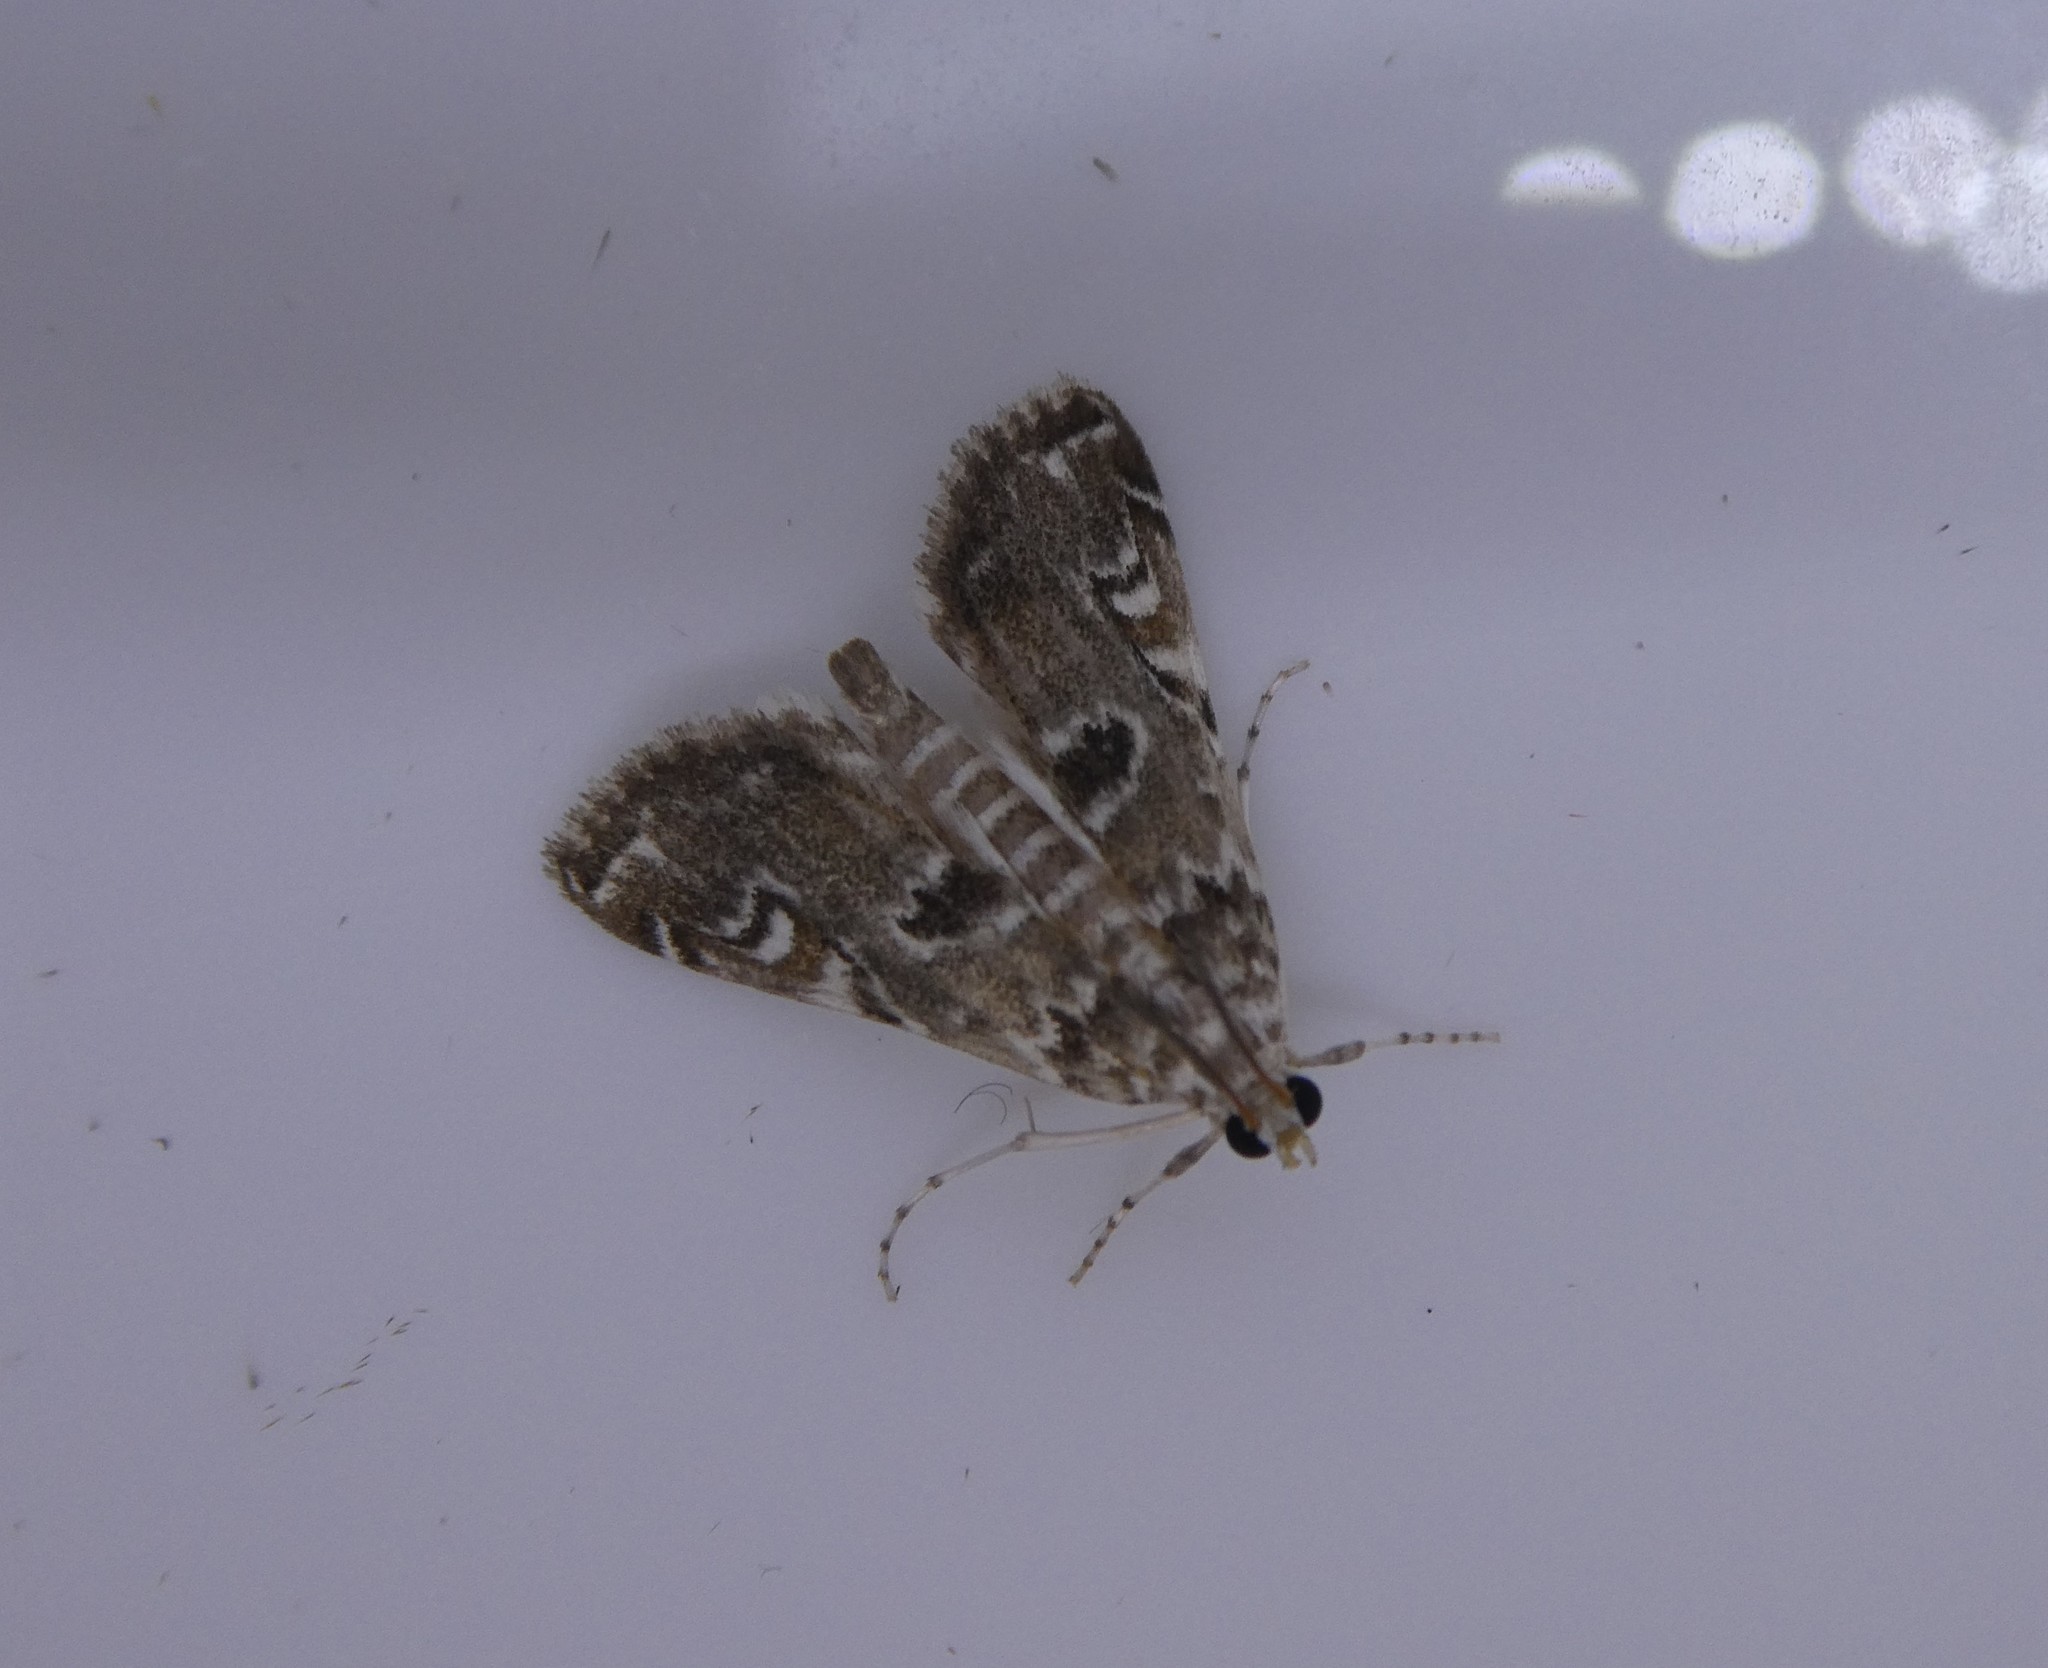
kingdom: Animalia
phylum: Arthropoda
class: Insecta
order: Lepidoptera
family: Crambidae
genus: Elophila
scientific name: Elophila gyralis
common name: Waterlily borer moth
